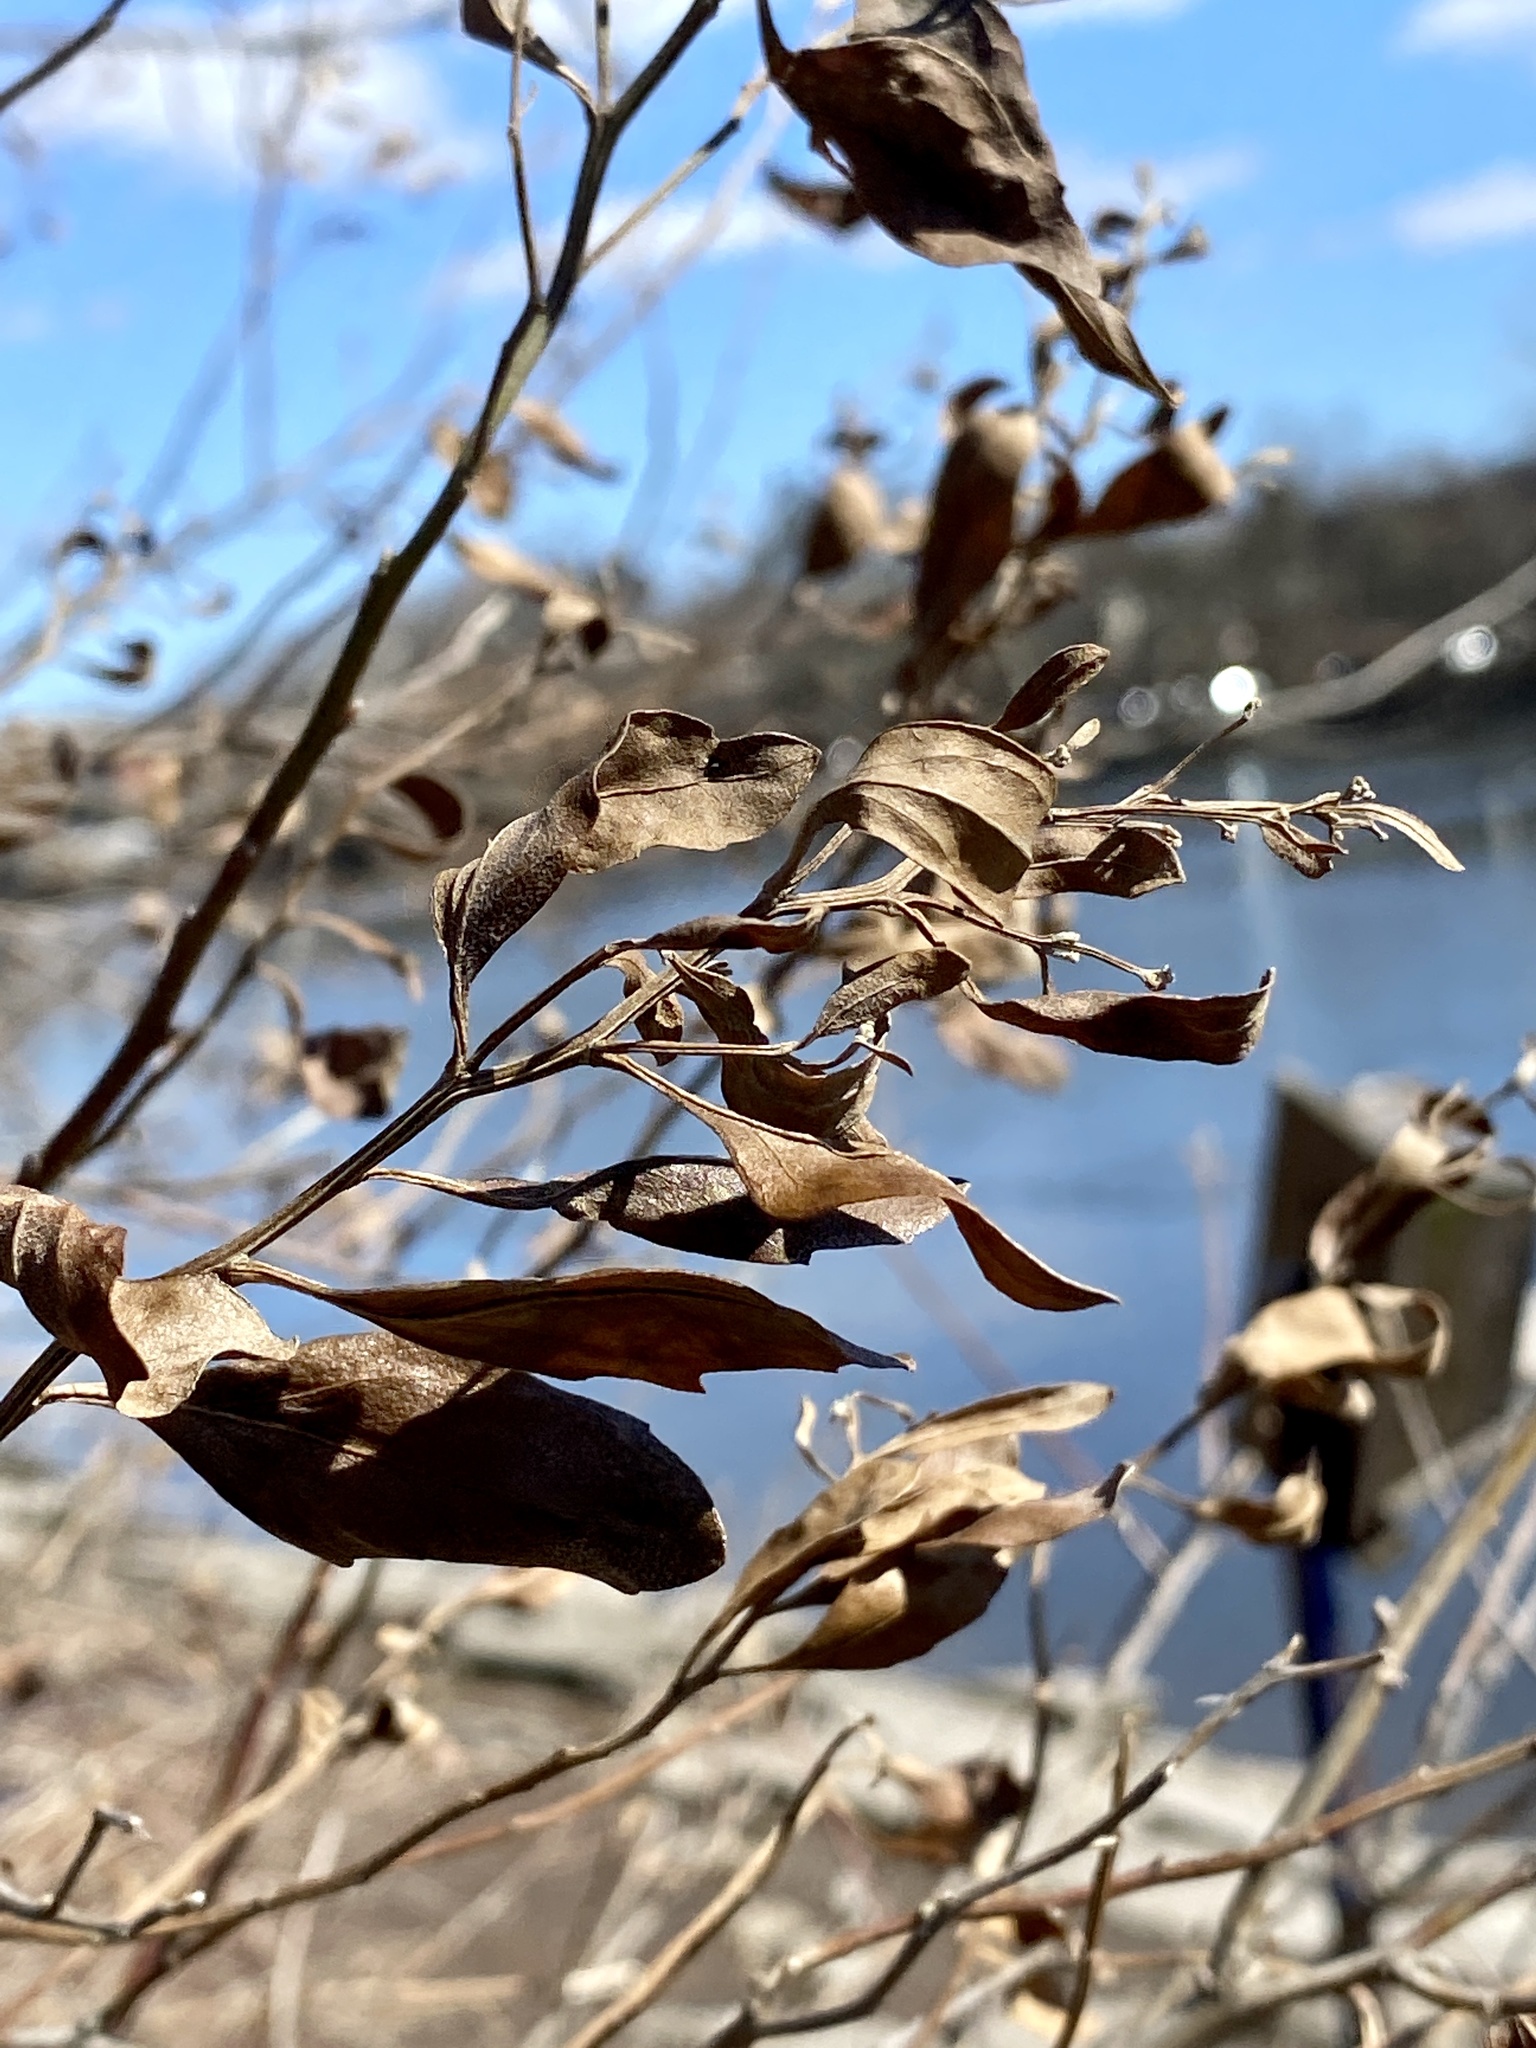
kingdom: Plantae
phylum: Tracheophyta
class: Magnoliopsida
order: Asterales
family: Asteraceae
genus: Baccharis
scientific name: Baccharis halimifolia
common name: Eastern baccharis
